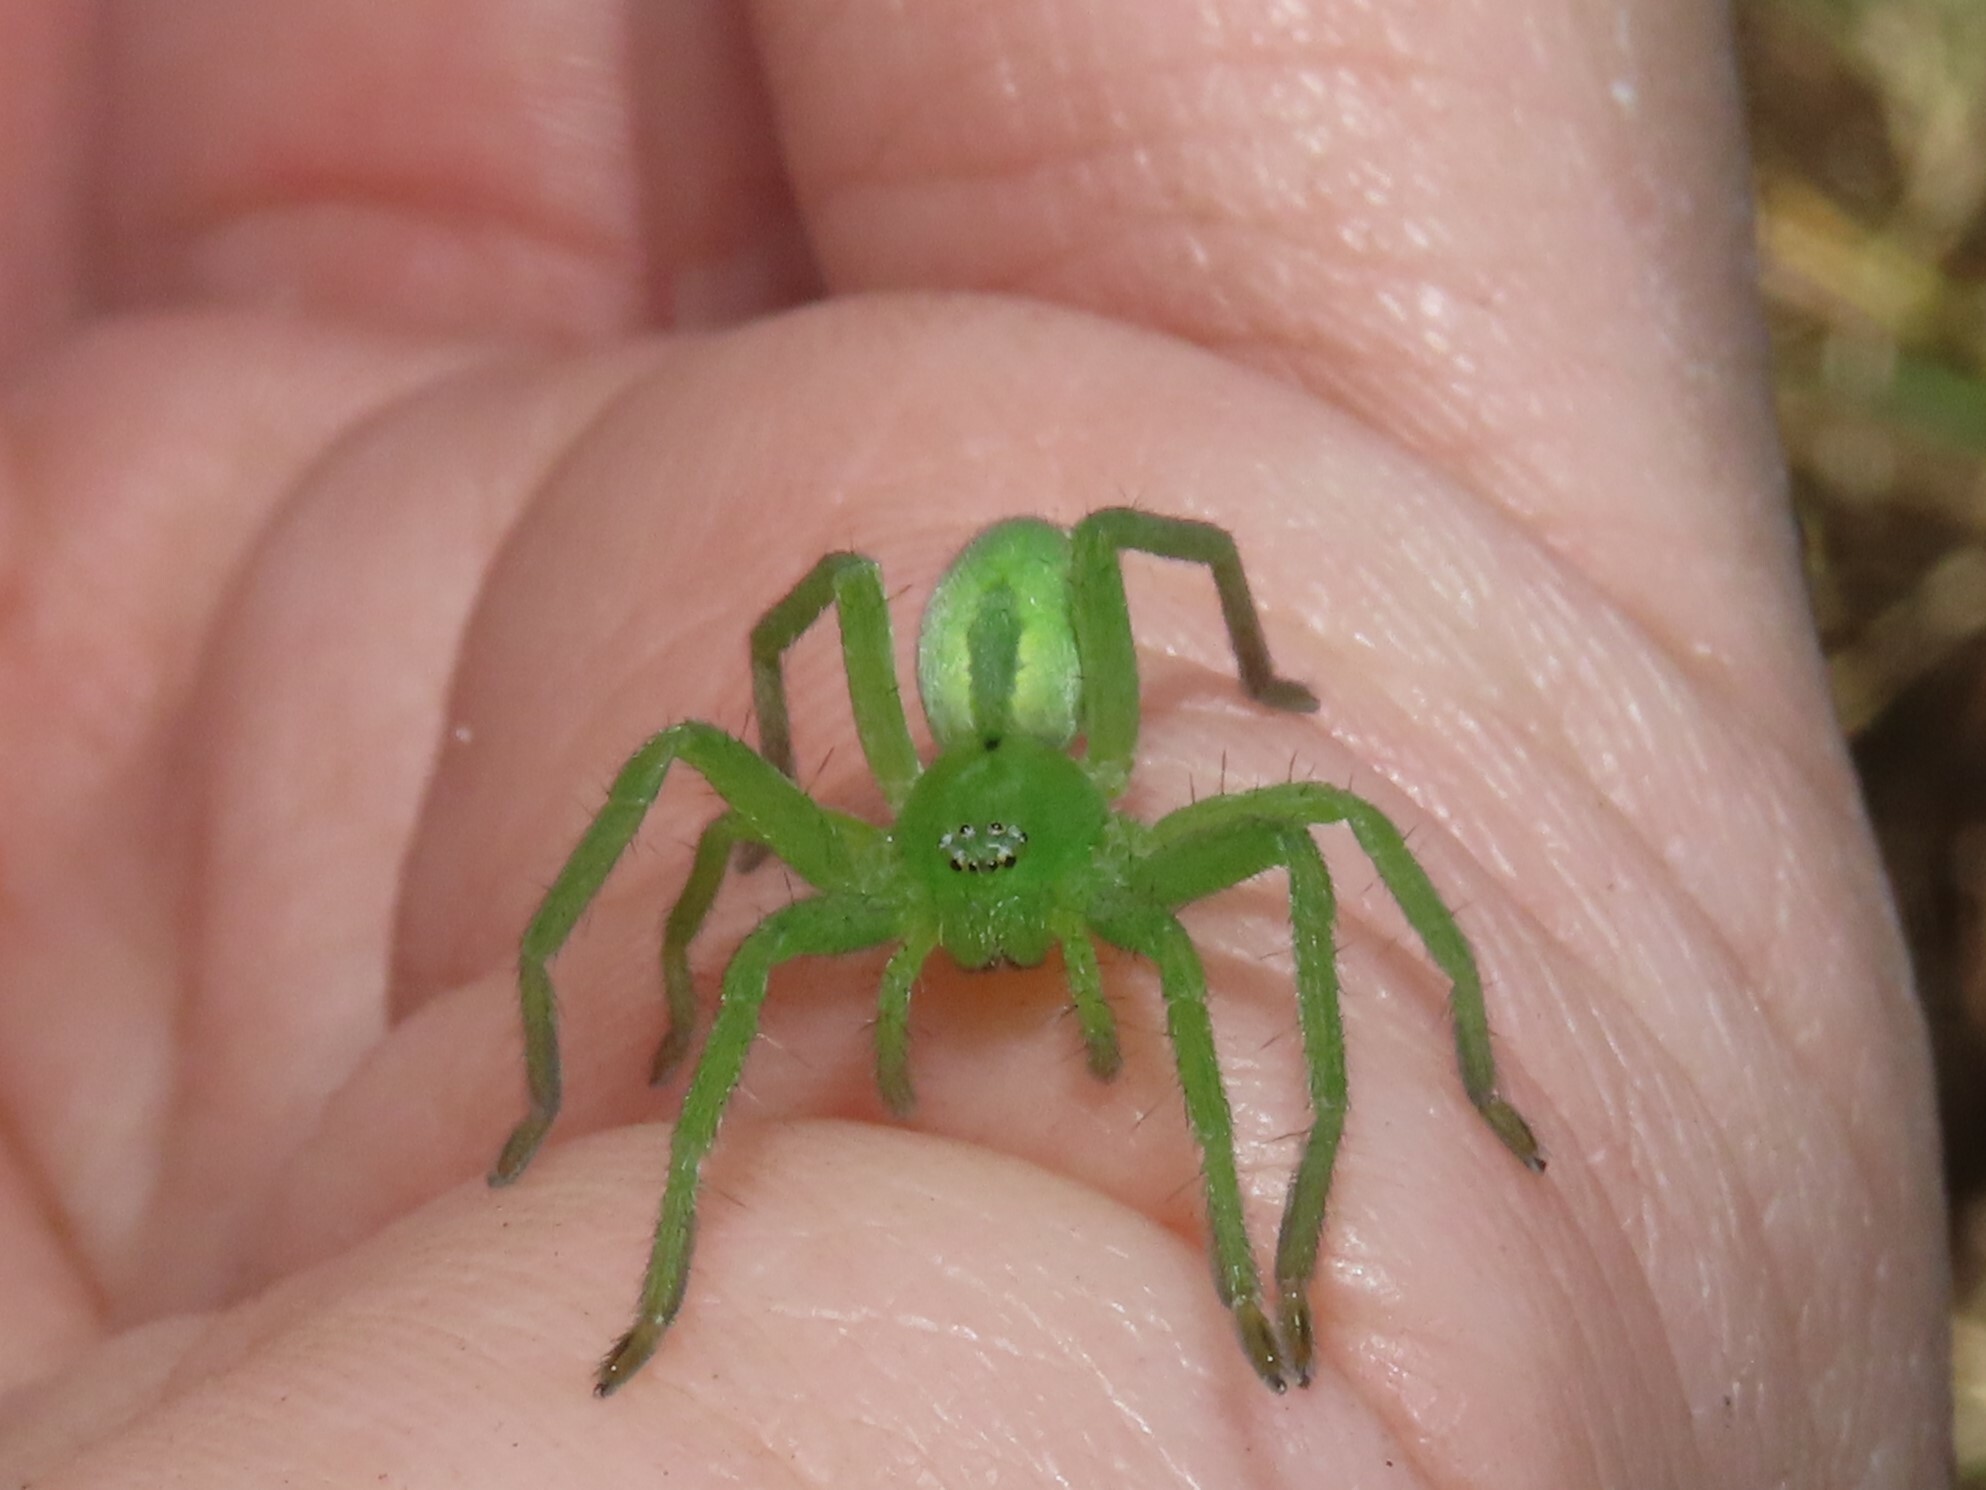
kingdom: Animalia
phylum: Arthropoda
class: Arachnida
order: Araneae
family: Sparassidae
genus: Micrommata
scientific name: Micrommata ligurina
